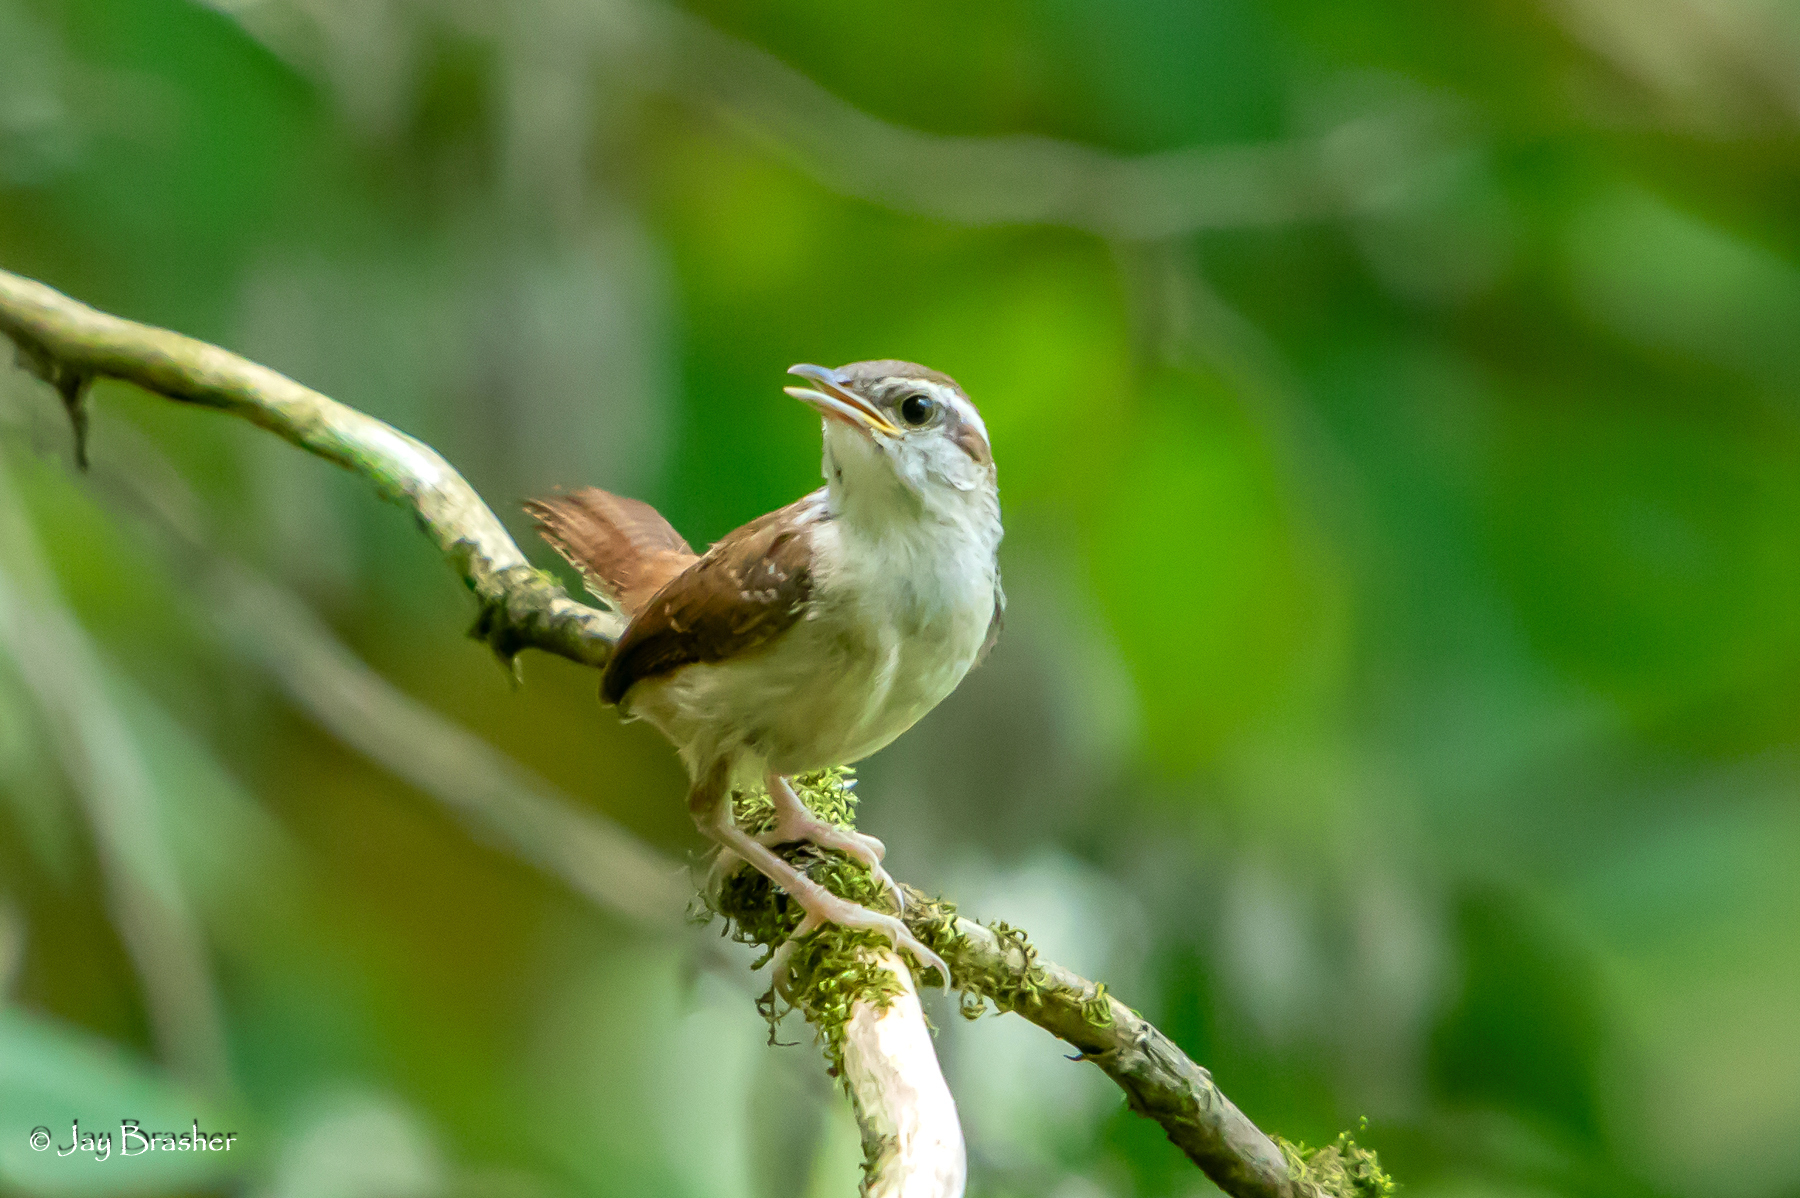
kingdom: Animalia
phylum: Chordata
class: Aves
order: Passeriformes
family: Troglodytidae
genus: Thryothorus
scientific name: Thryothorus ludovicianus
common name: Carolina wren
